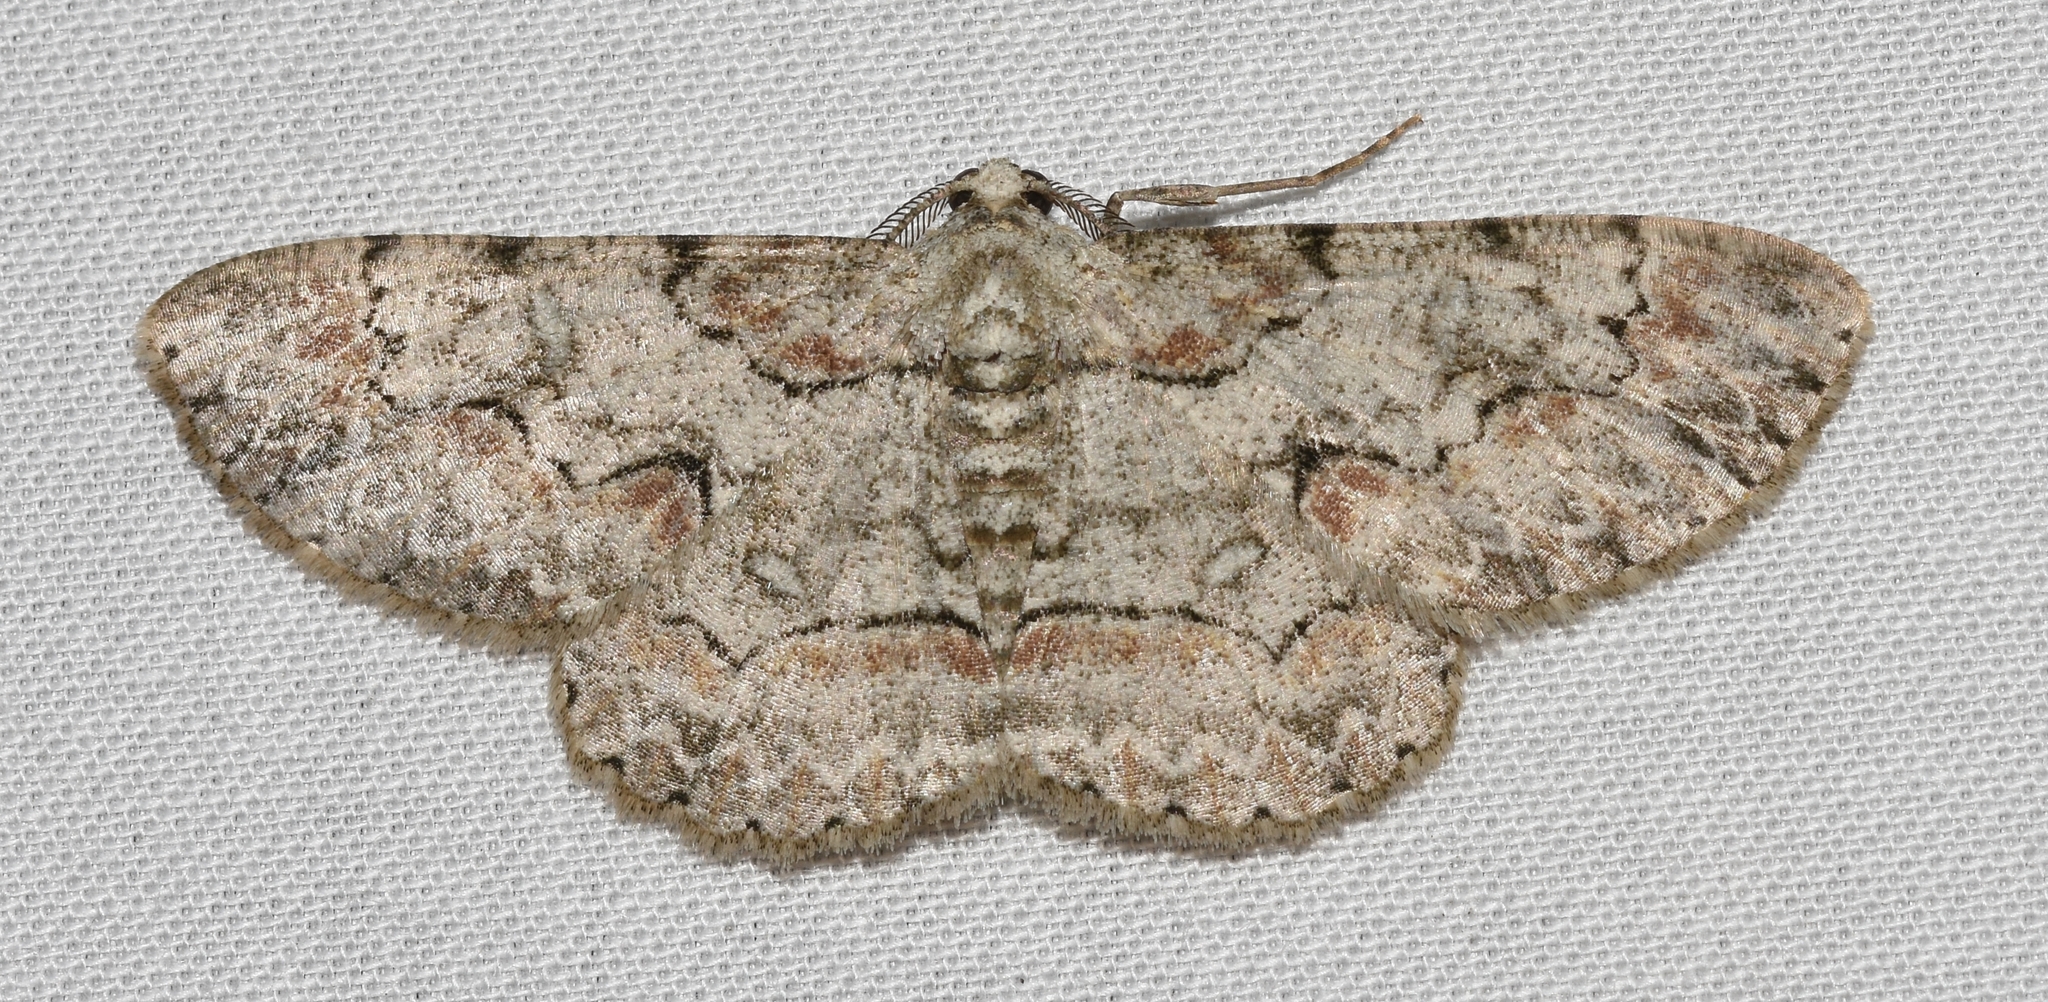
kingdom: Animalia
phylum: Arthropoda
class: Insecta
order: Lepidoptera
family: Geometridae
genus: Iridopsis
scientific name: Iridopsis defectaria
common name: Brown-shaded gray
